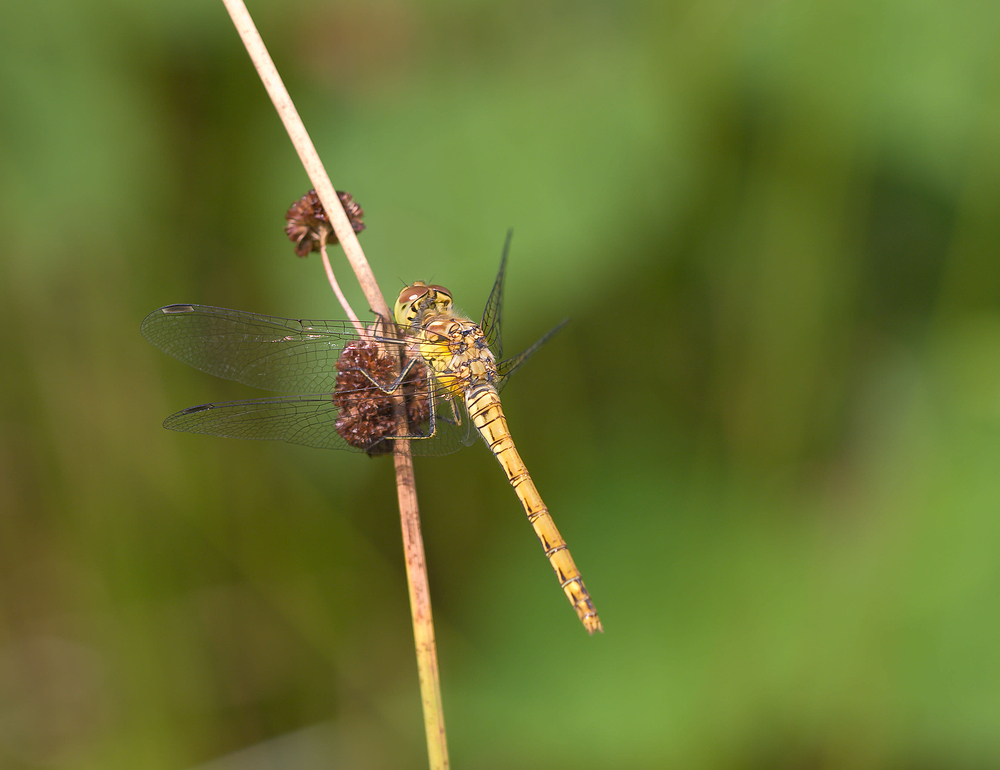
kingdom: Animalia
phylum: Arthropoda
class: Insecta
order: Odonata
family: Libellulidae
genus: Sympetrum
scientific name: Sympetrum striolatum
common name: Common darter
